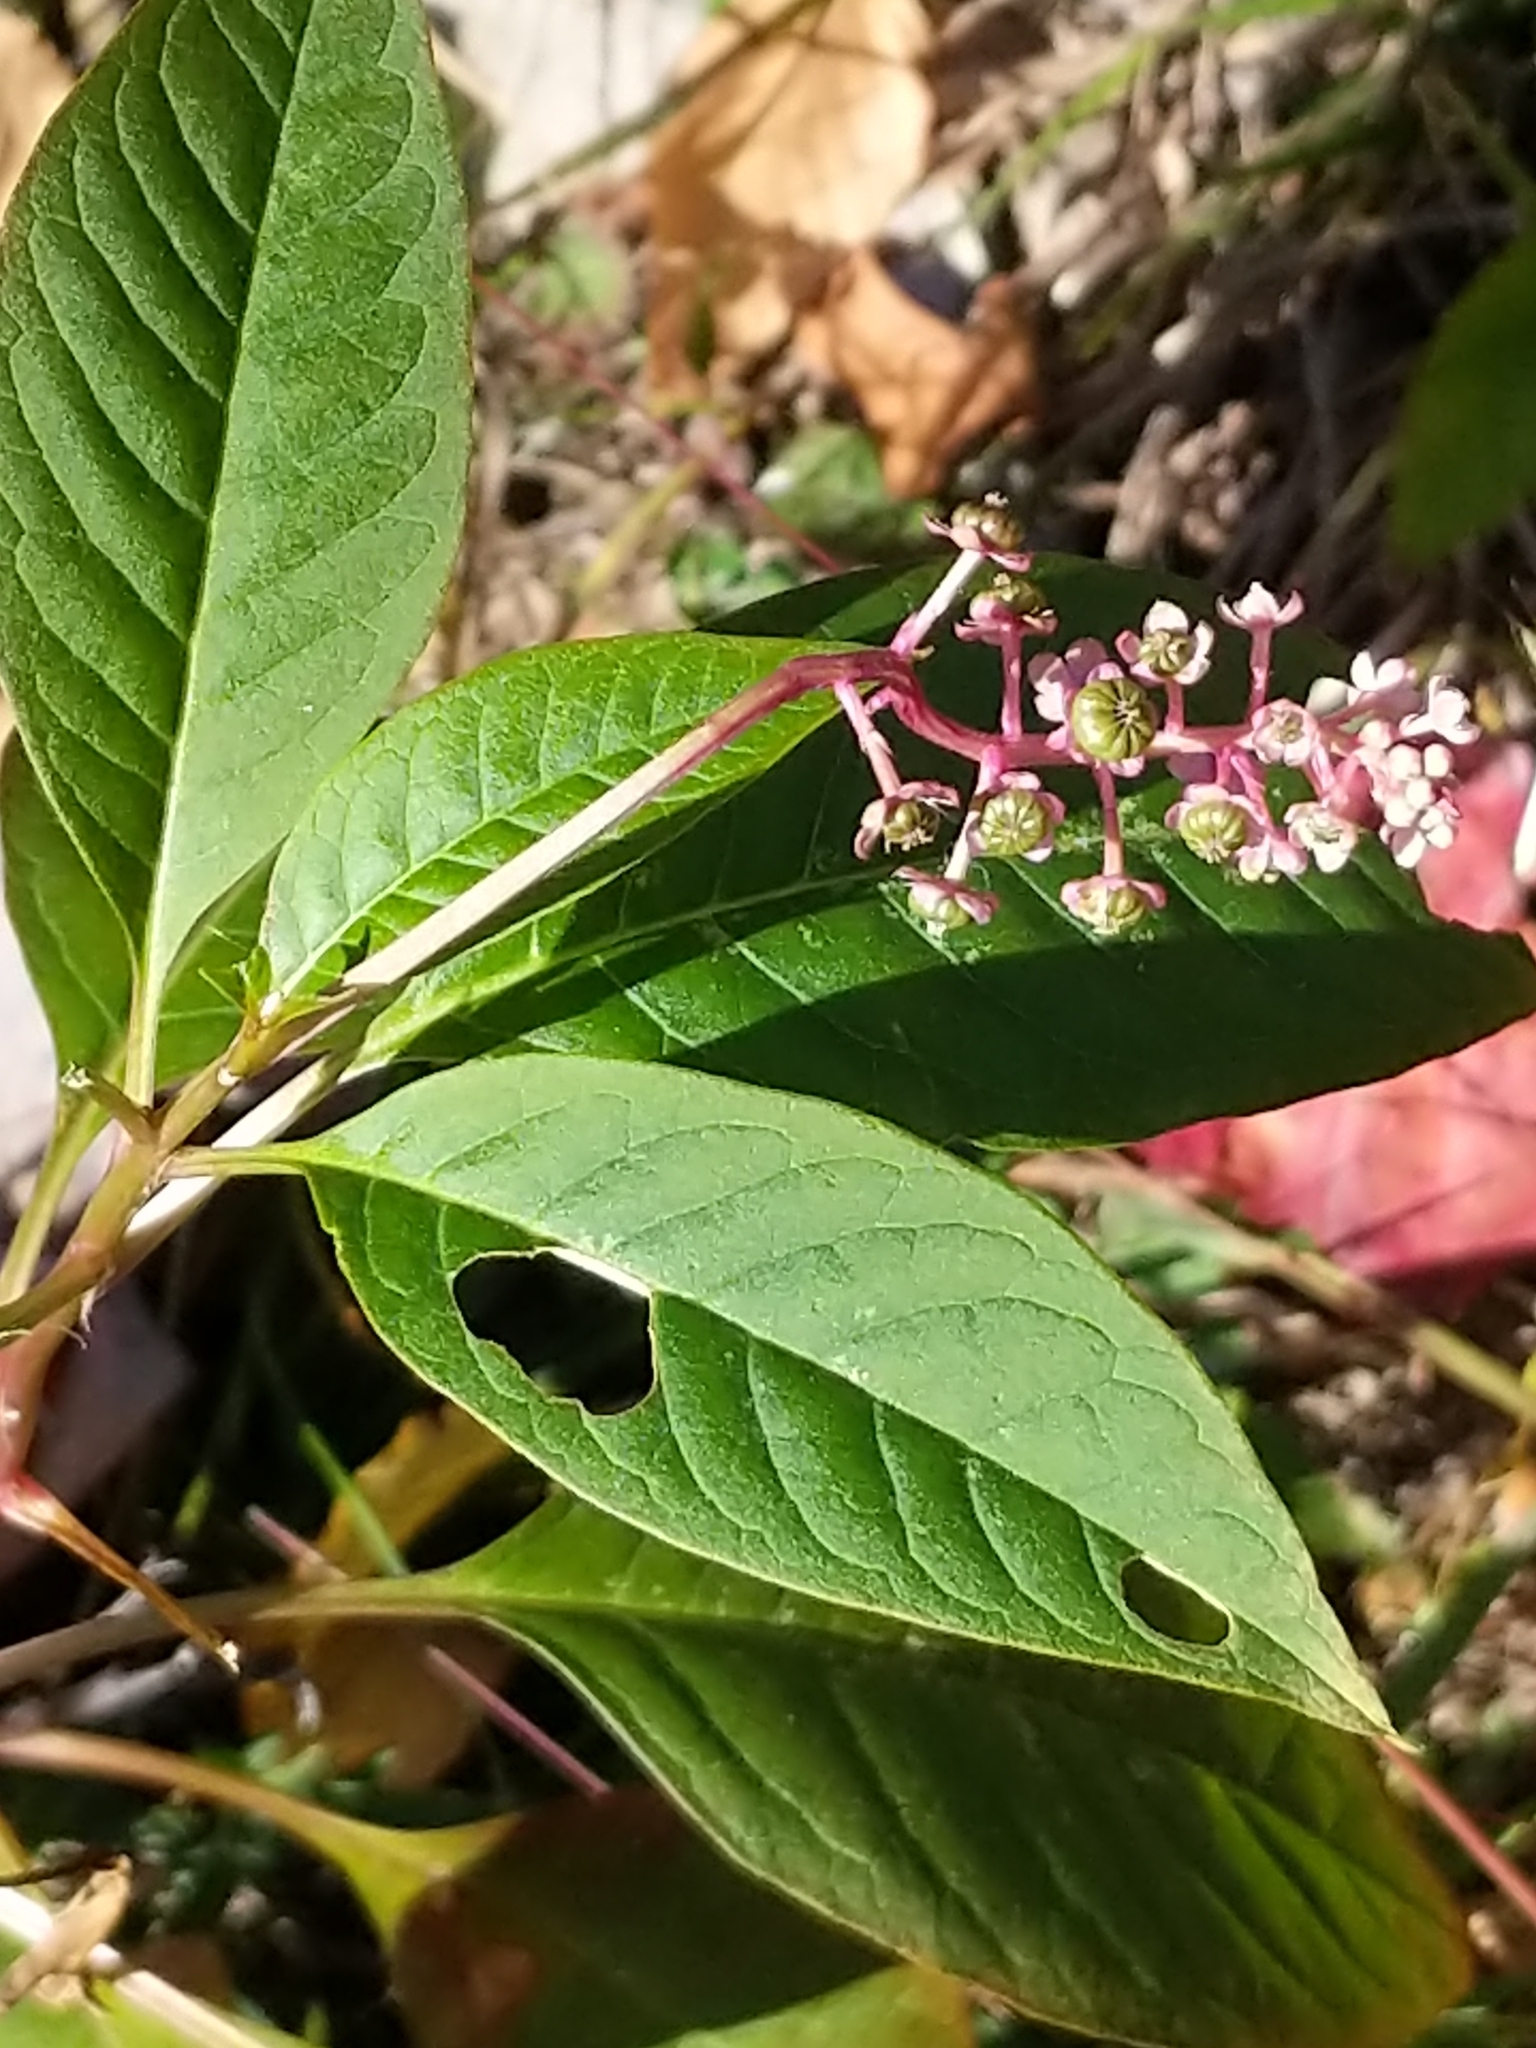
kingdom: Plantae
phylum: Tracheophyta
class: Magnoliopsida
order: Caryophyllales
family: Phytolaccaceae
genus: Phytolacca
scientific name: Phytolacca americana
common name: American pokeweed
